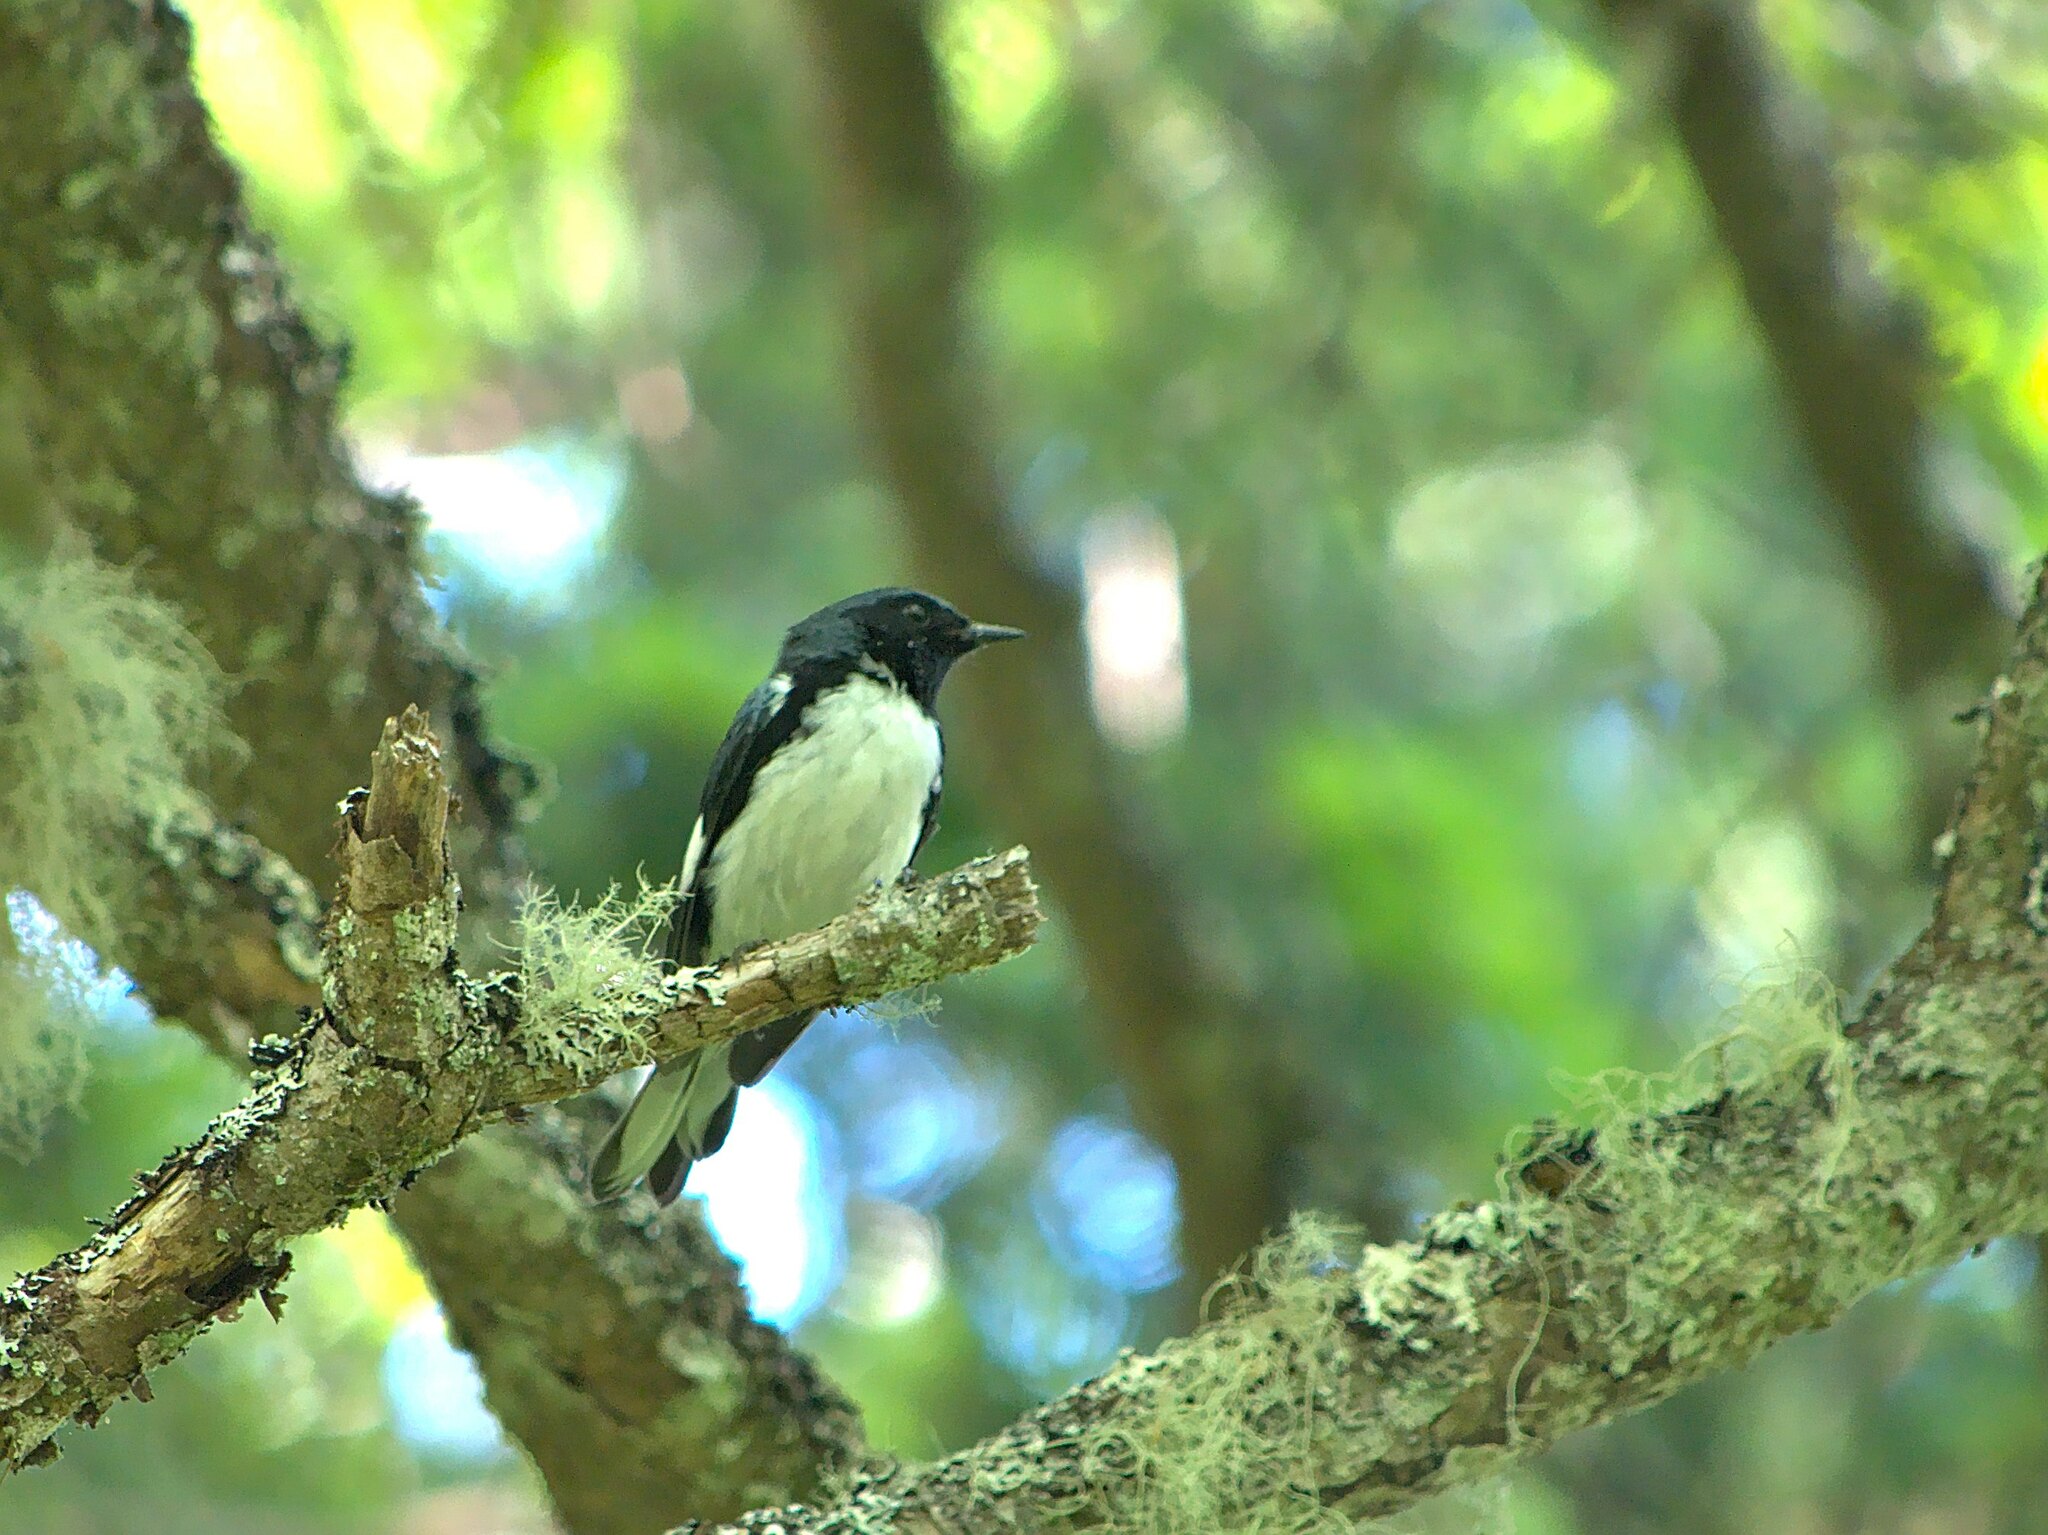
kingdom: Animalia
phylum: Chordata
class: Aves
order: Passeriformes
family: Parulidae
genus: Setophaga
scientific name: Setophaga caerulescens
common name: Black-throated blue warbler
